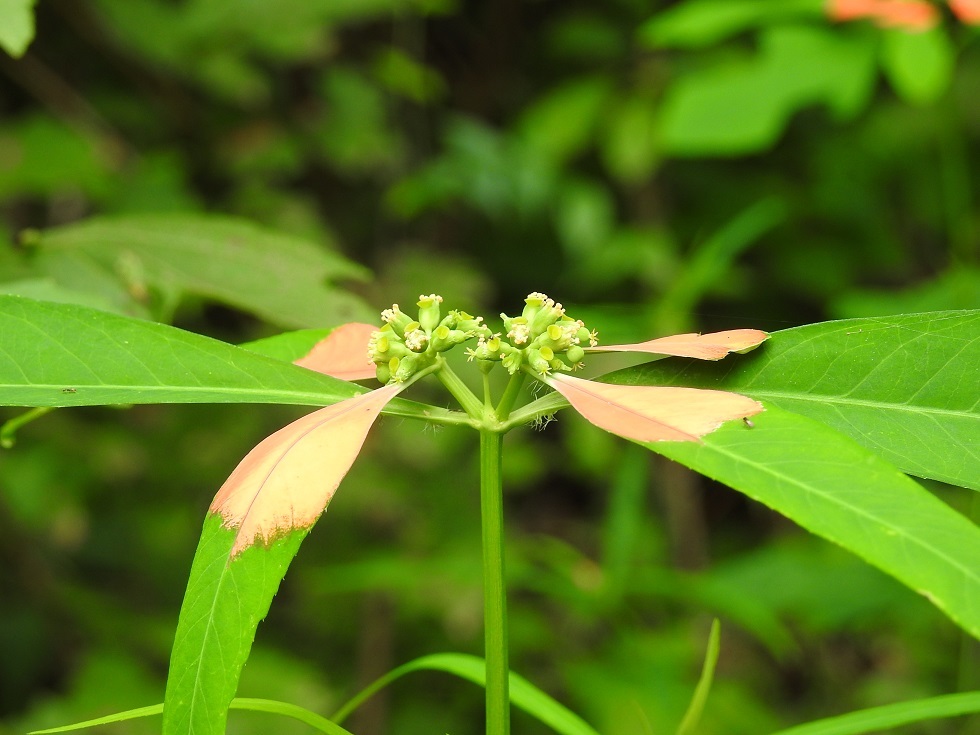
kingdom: Plantae
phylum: Tracheophyta
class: Magnoliopsida
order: Malpighiales
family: Euphorbiaceae
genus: Euphorbia
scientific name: Euphorbia heterophylla
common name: Mexican fireplant
